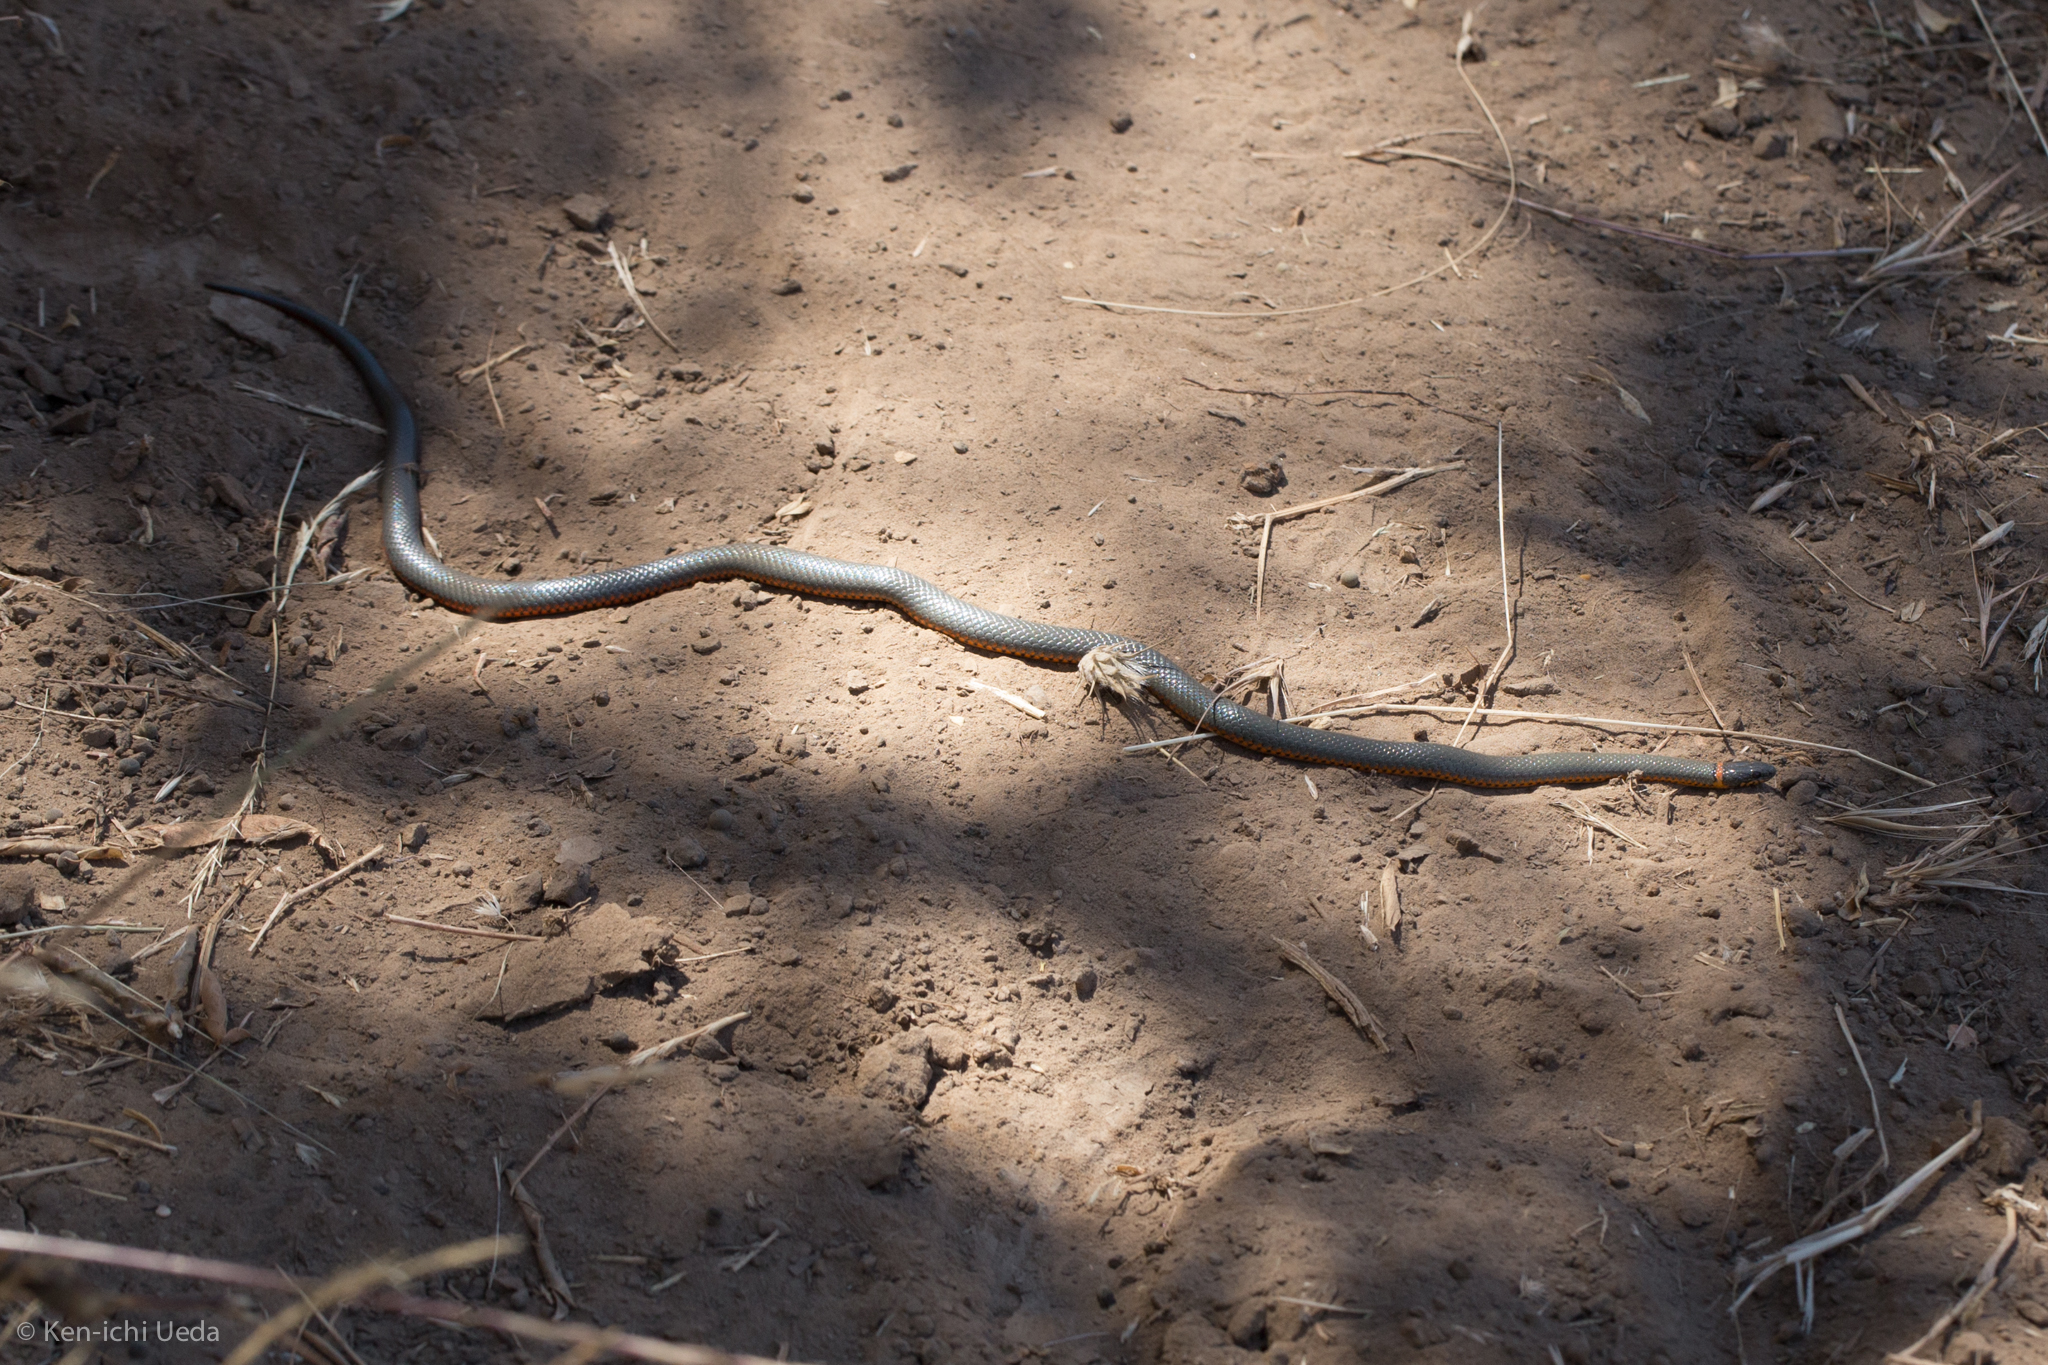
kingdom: Animalia
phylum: Chordata
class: Squamata
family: Colubridae
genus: Diadophis
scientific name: Diadophis punctatus
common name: Ringneck snake
